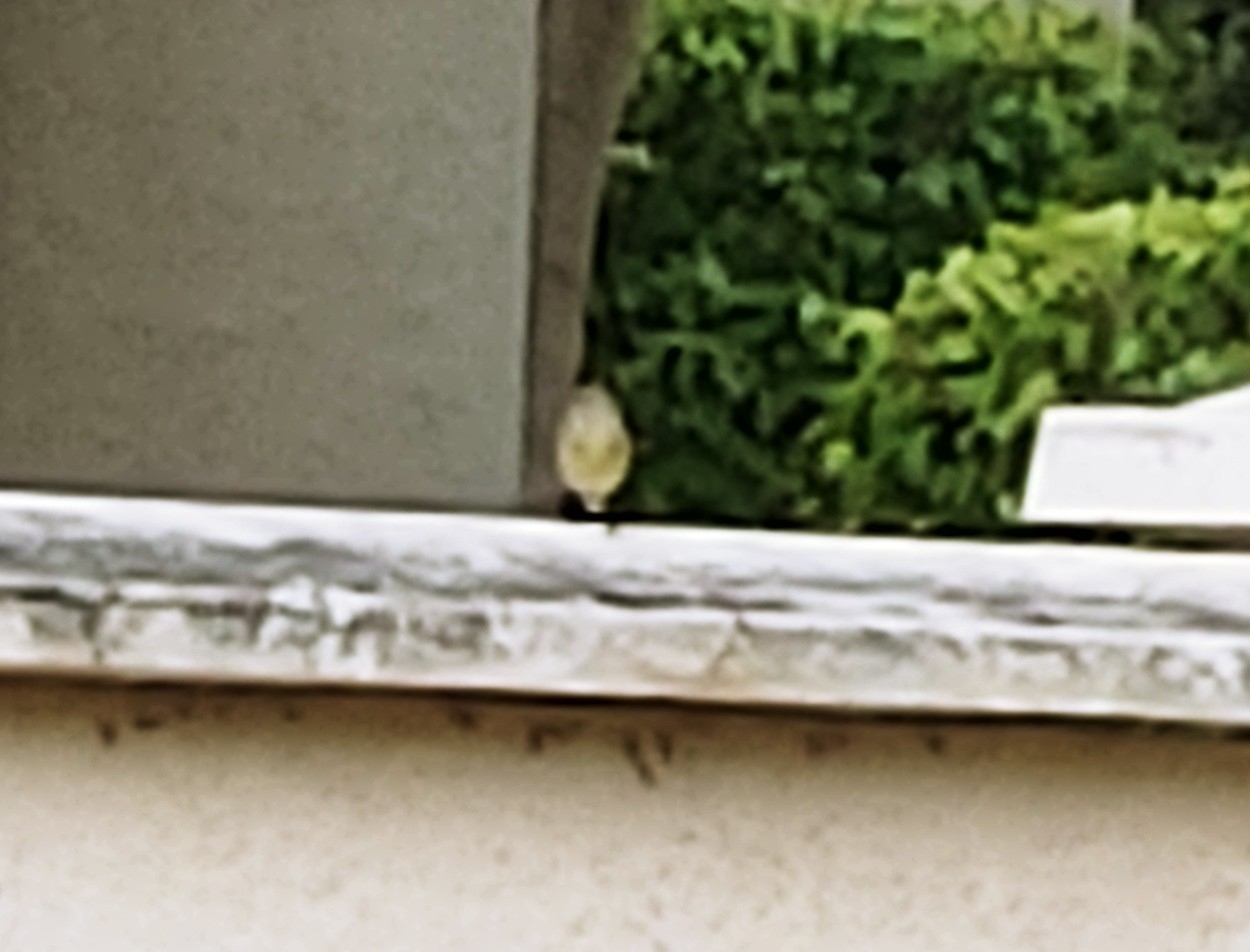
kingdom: Animalia
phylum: Chordata
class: Aves
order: Passeriformes
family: Parulidae
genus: Setophaga
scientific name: Setophaga palmarum
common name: Palm warbler
